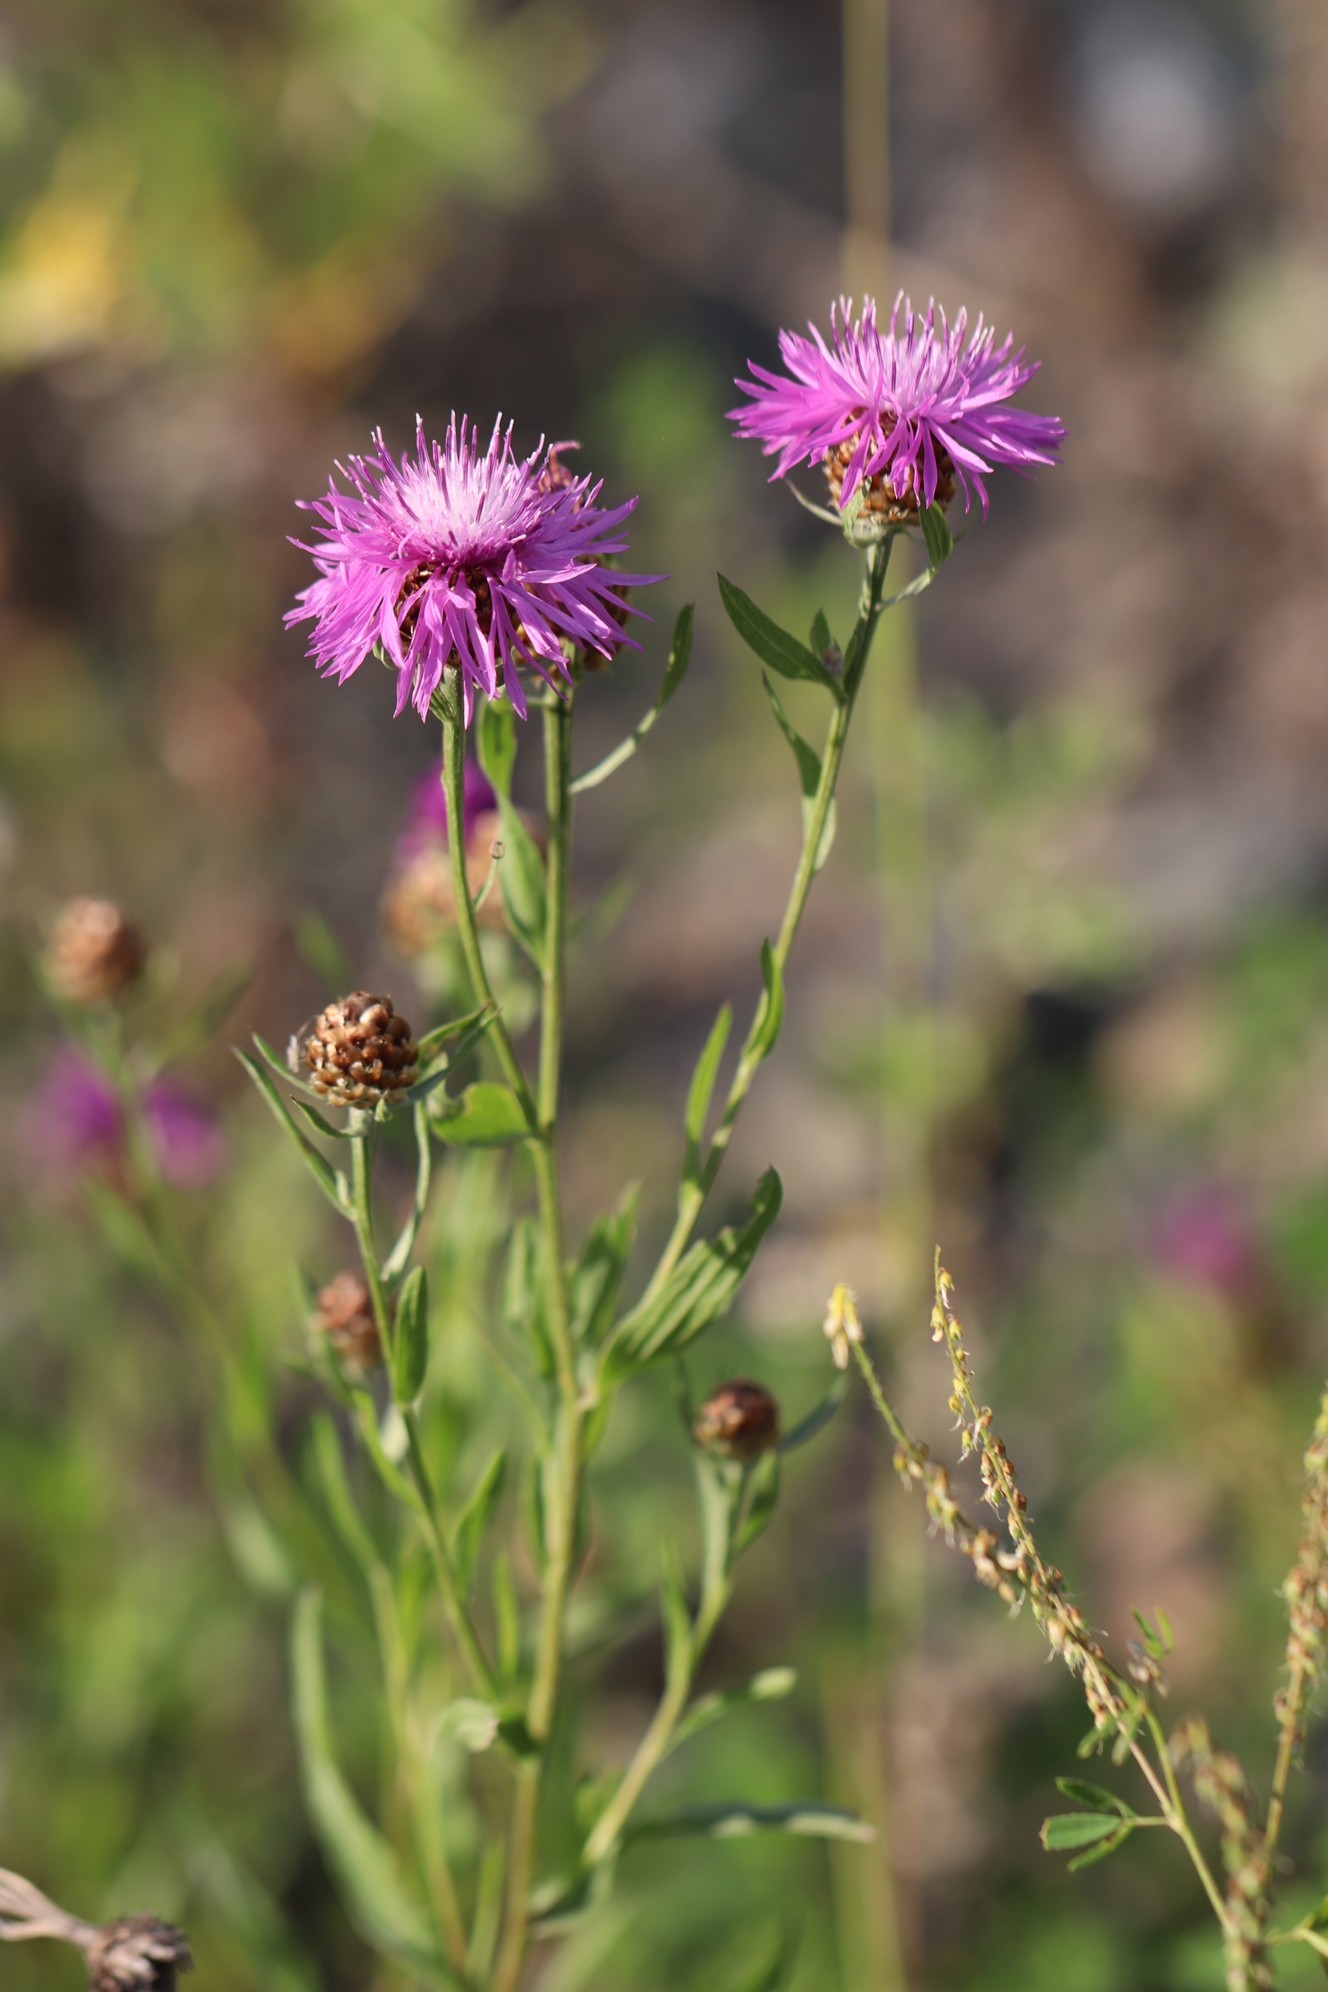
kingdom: Plantae
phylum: Tracheophyta
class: Magnoliopsida
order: Asterales
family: Asteraceae
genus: Centaurea
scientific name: Centaurea jacea
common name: Brown knapweed
